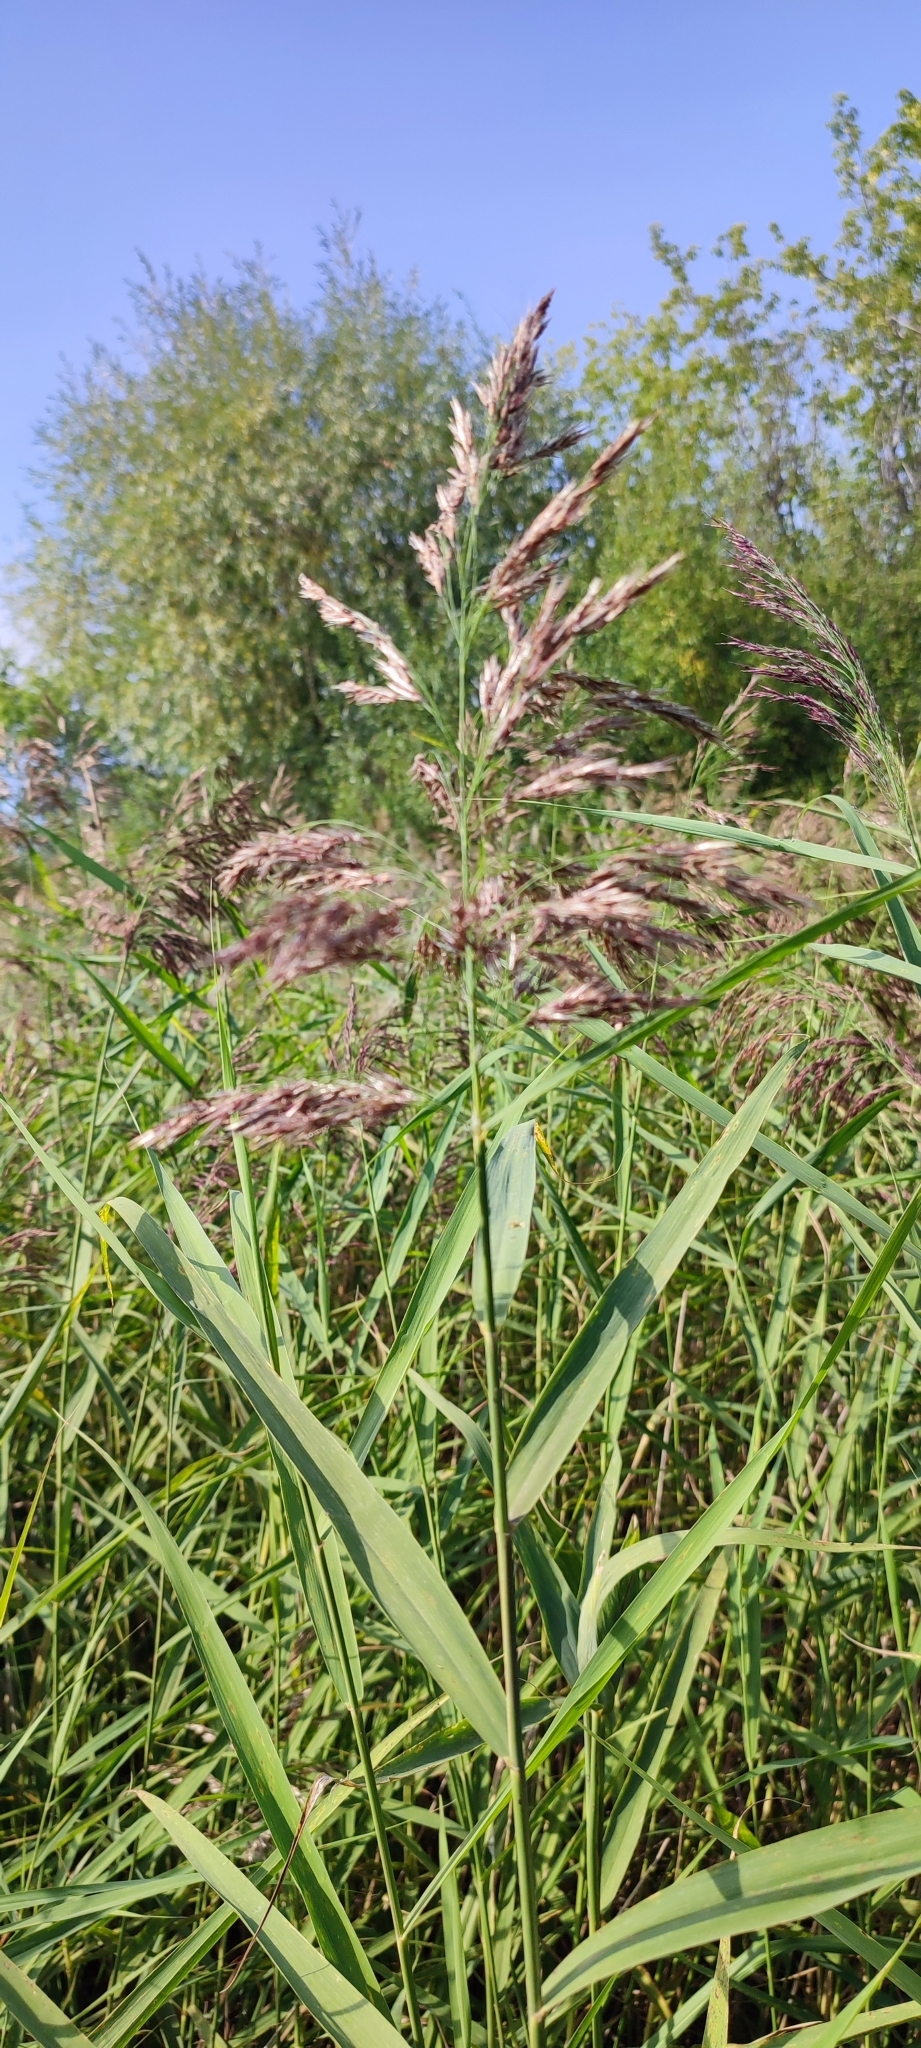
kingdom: Plantae
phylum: Tracheophyta
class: Liliopsida
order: Poales
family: Poaceae
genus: Phragmites
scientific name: Phragmites australis
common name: Common reed
